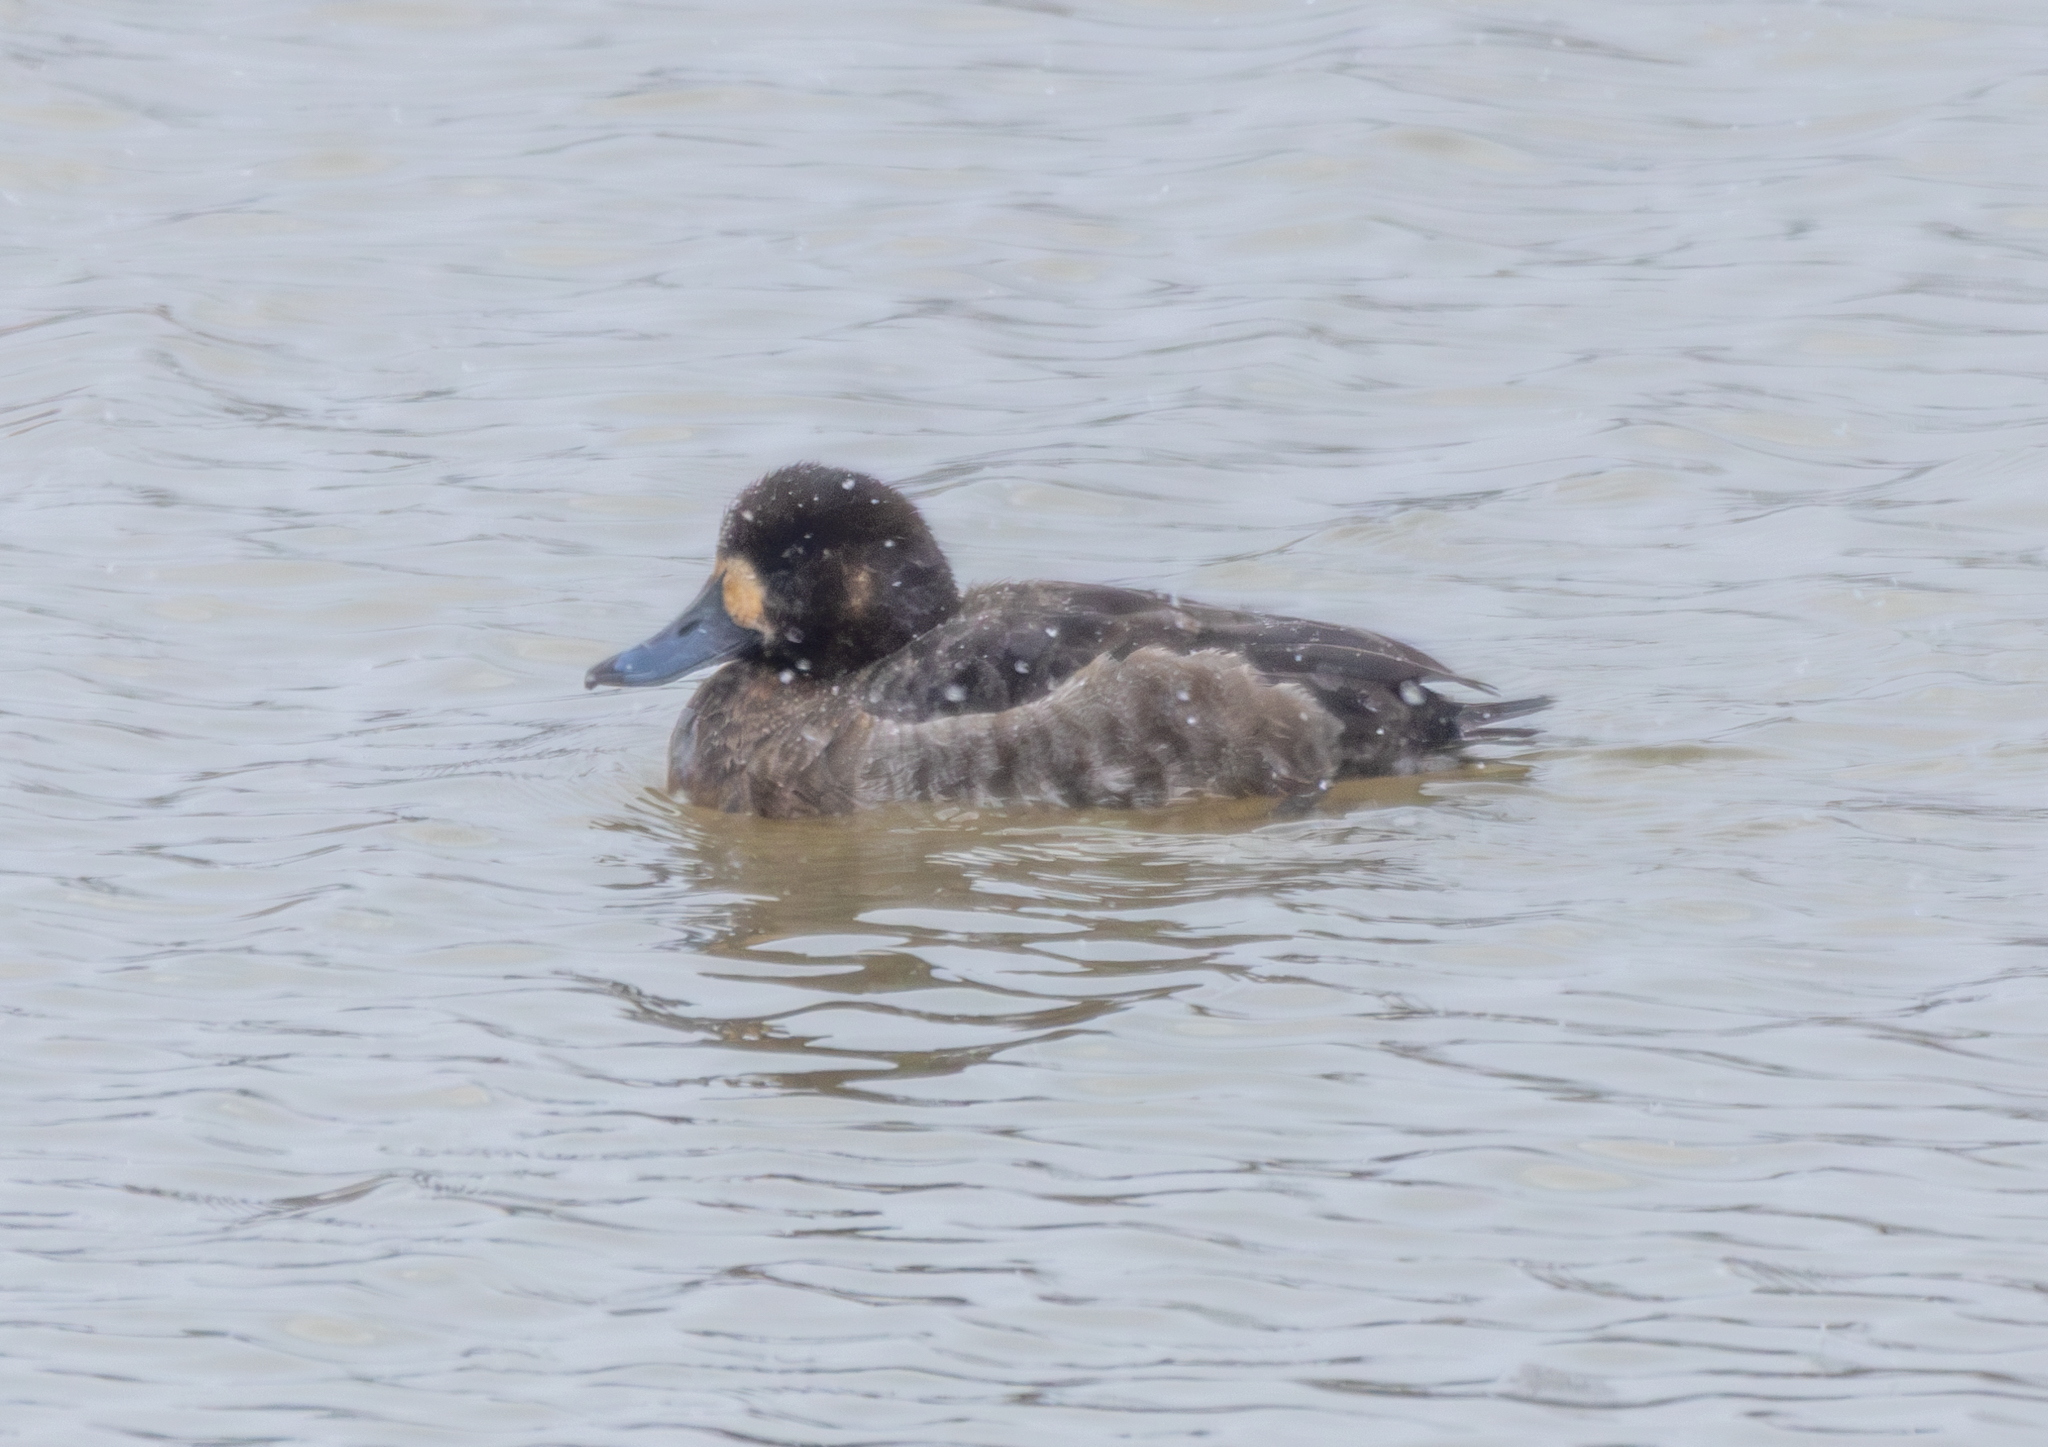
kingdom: Animalia
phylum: Chordata
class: Aves
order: Anseriformes
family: Anatidae
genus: Aythya
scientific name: Aythya marila
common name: Greater scaup
